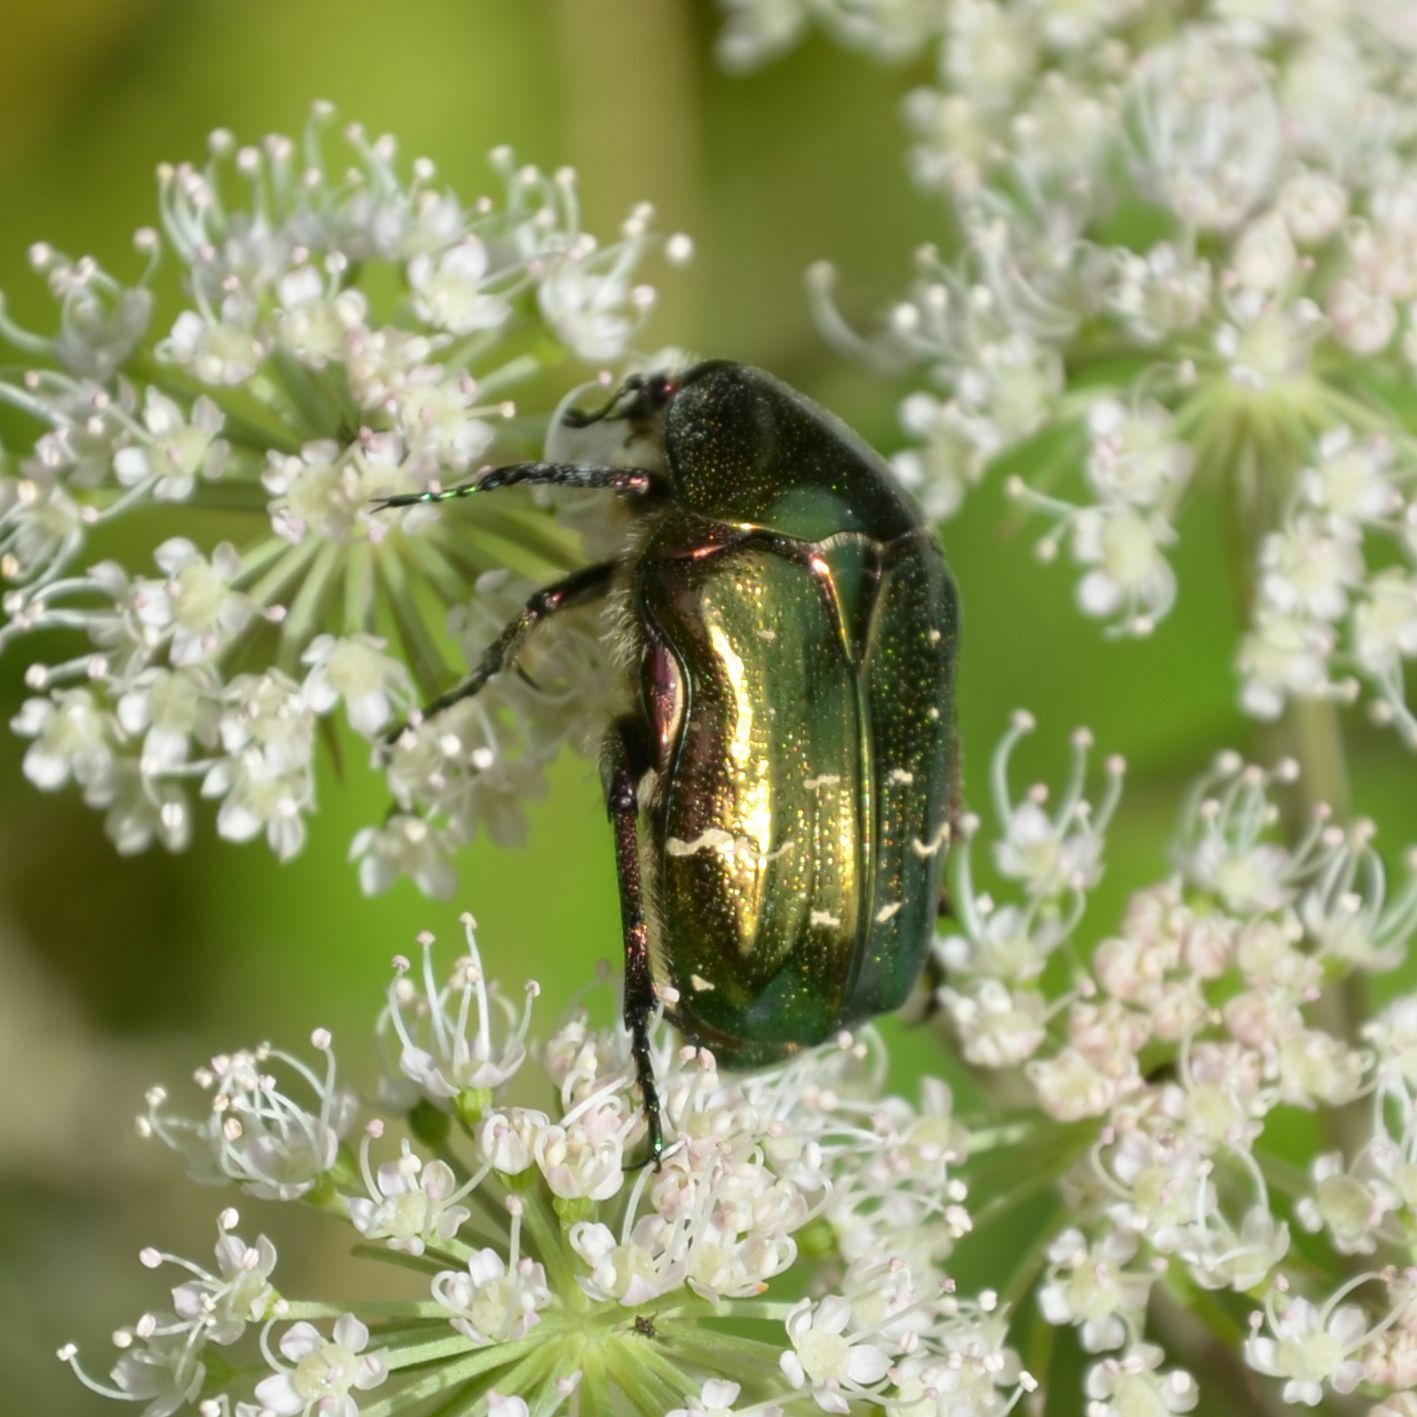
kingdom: Animalia
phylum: Arthropoda
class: Insecta
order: Coleoptera
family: Scarabaeidae
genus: Cetonia
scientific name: Cetonia aurata
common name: Rose chafer
